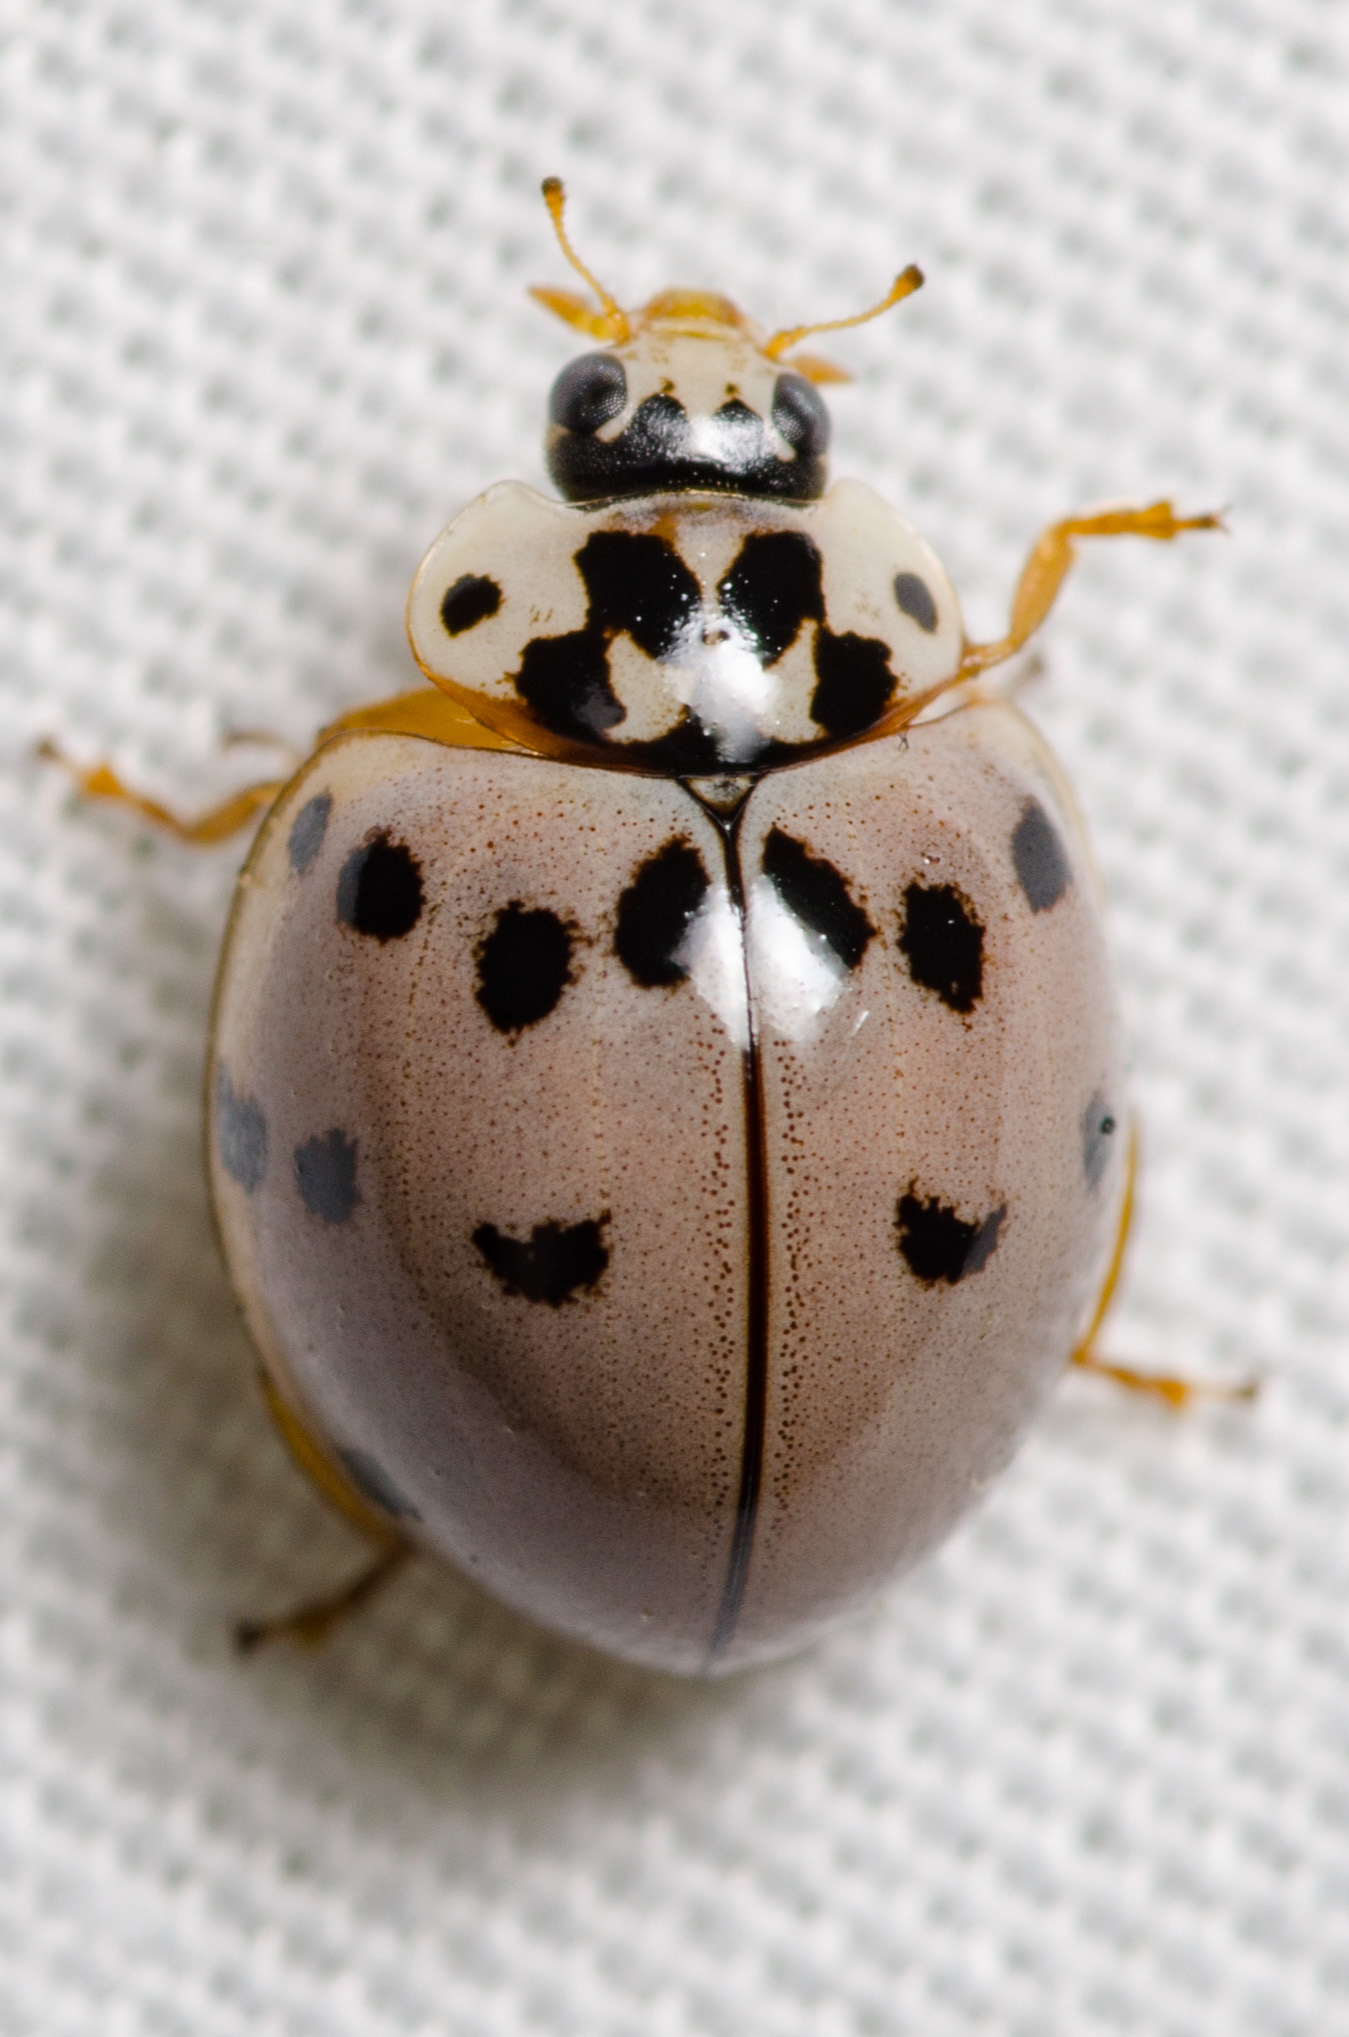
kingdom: Animalia
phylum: Arthropoda
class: Insecta
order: Coleoptera
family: Coccinellidae
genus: Olla
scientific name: Olla v-nigrum
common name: Ashy gray lady beetle
